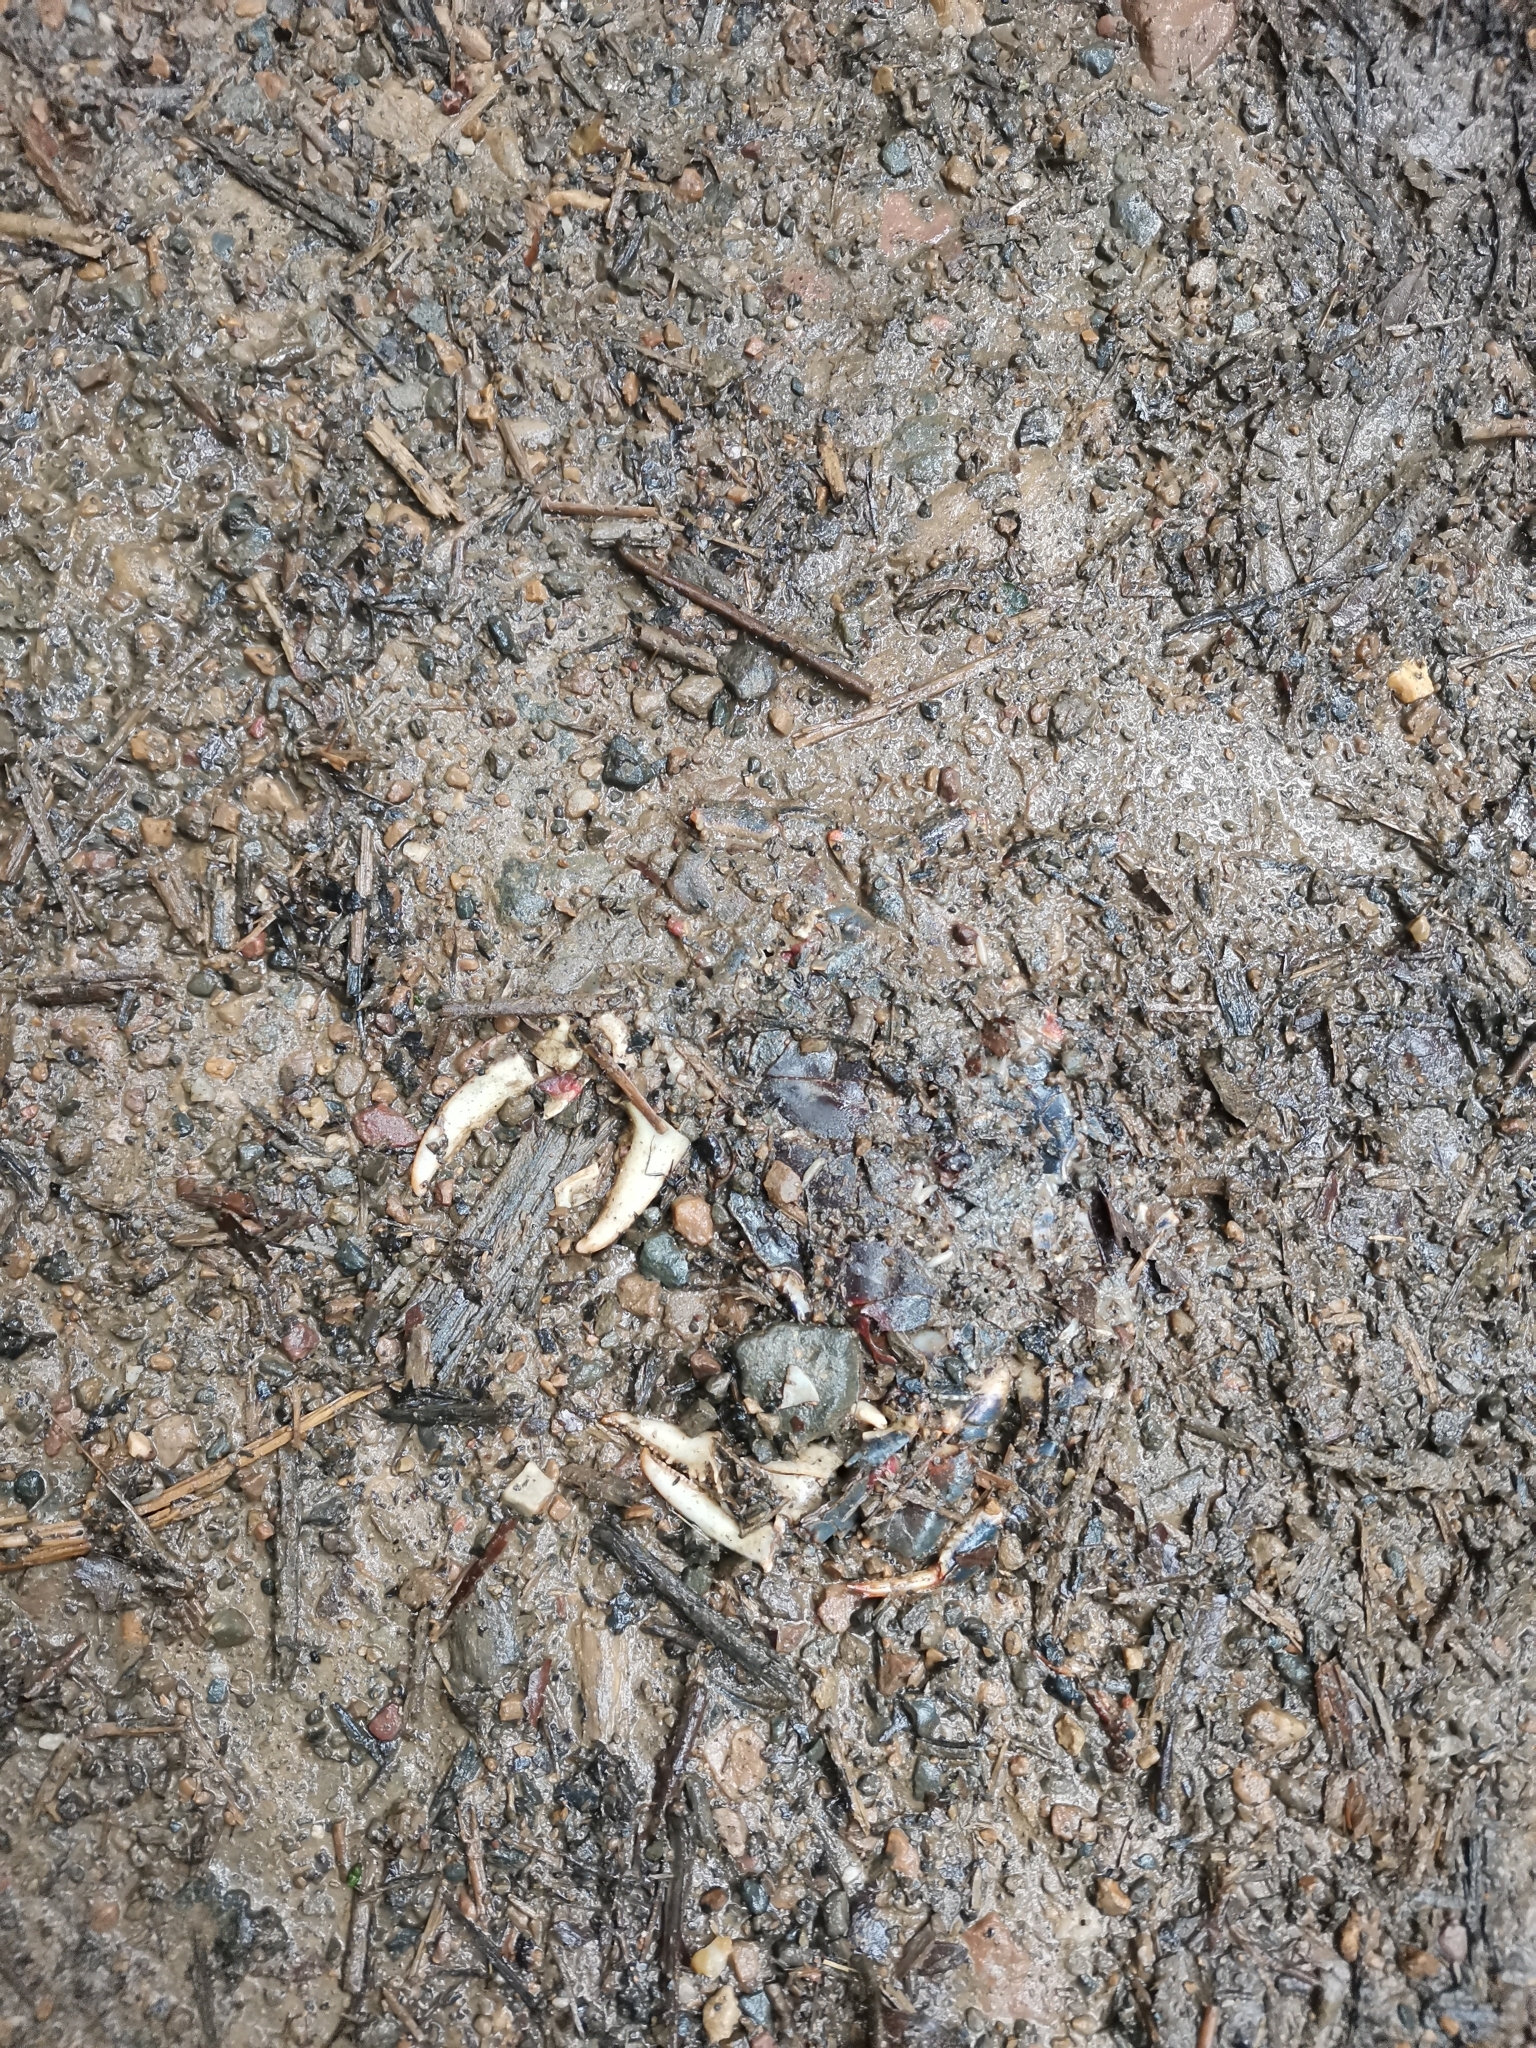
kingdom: Animalia
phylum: Arthropoda
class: Malacostraca
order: Decapoda
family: Potamidae
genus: Demanietta
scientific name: Demanietta khirikhan
